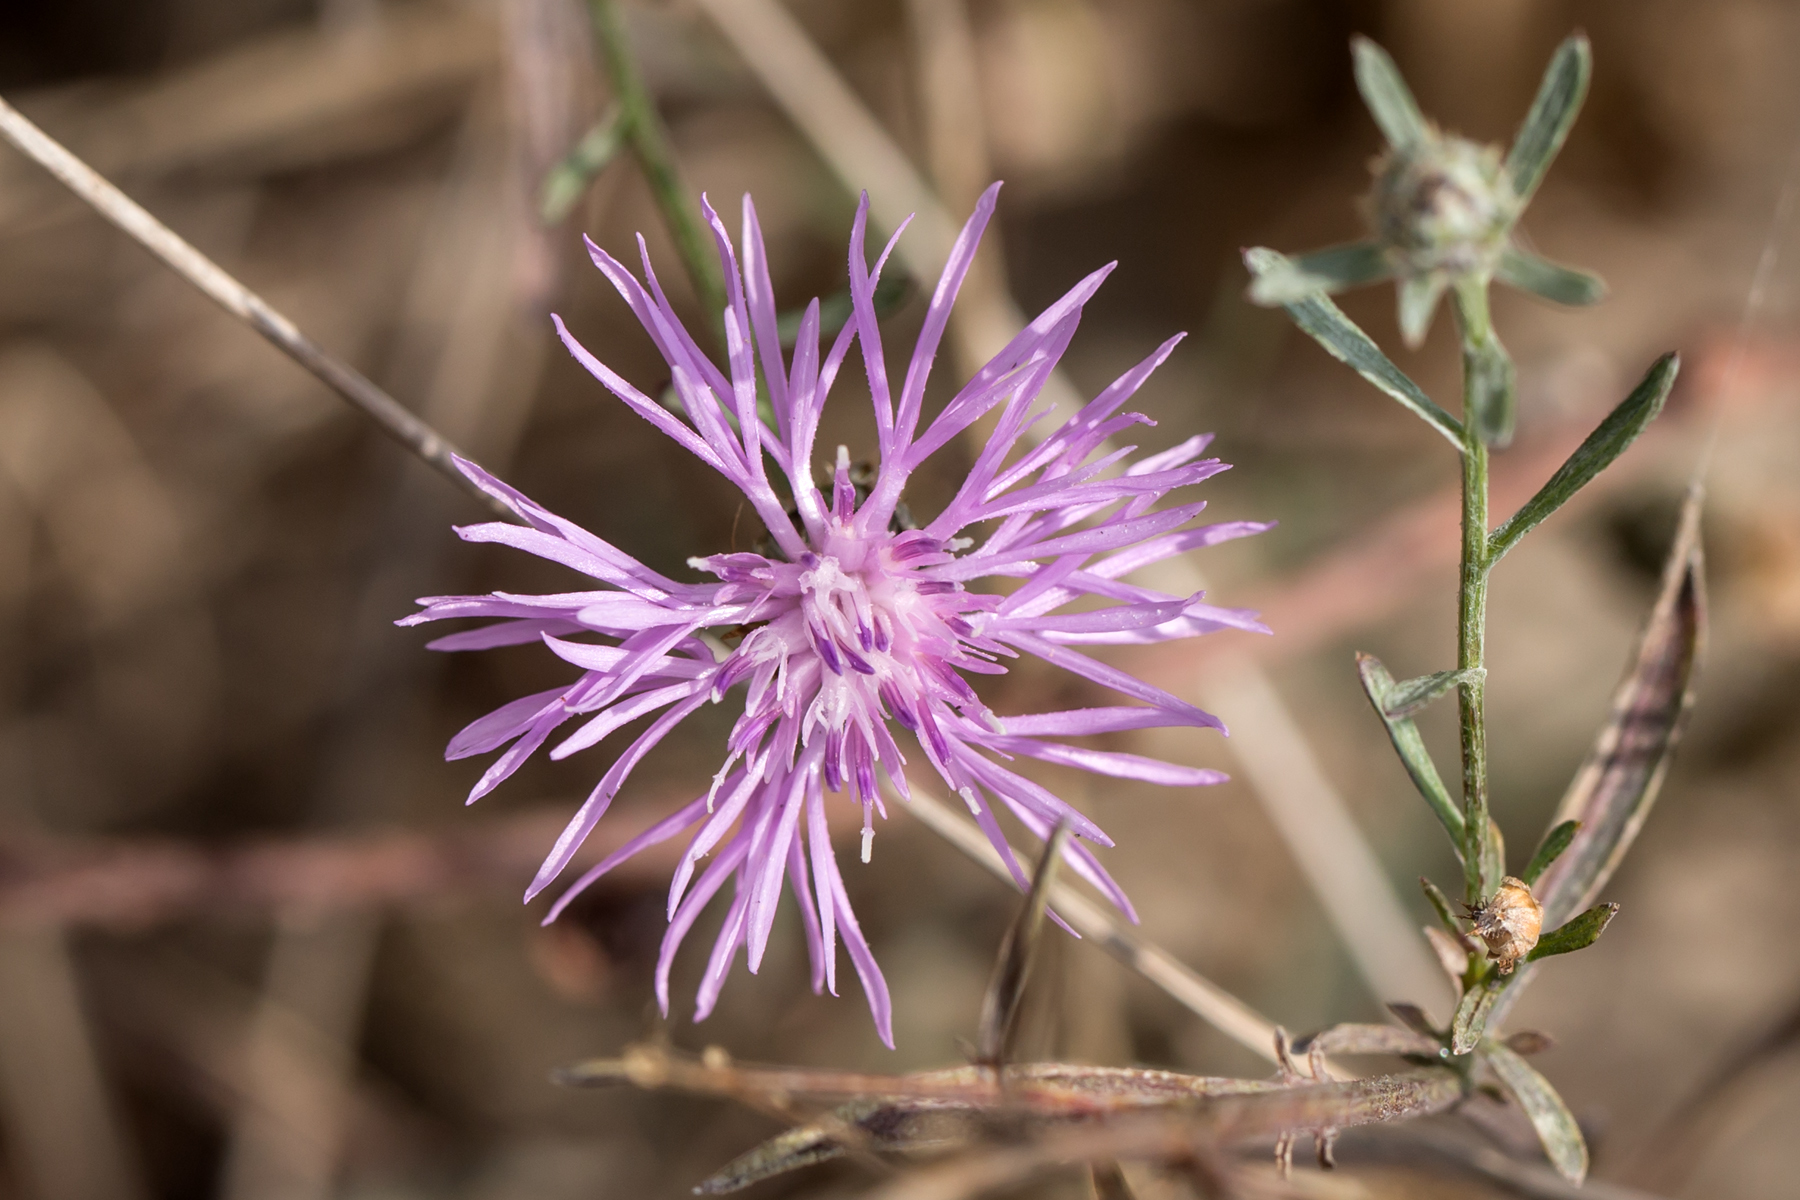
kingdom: Plantae
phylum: Tracheophyta
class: Magnoliopsida
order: Asterales
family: Asteraceae
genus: Centaurea
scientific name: Centaurea stoebe
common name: Spotted knapweed
